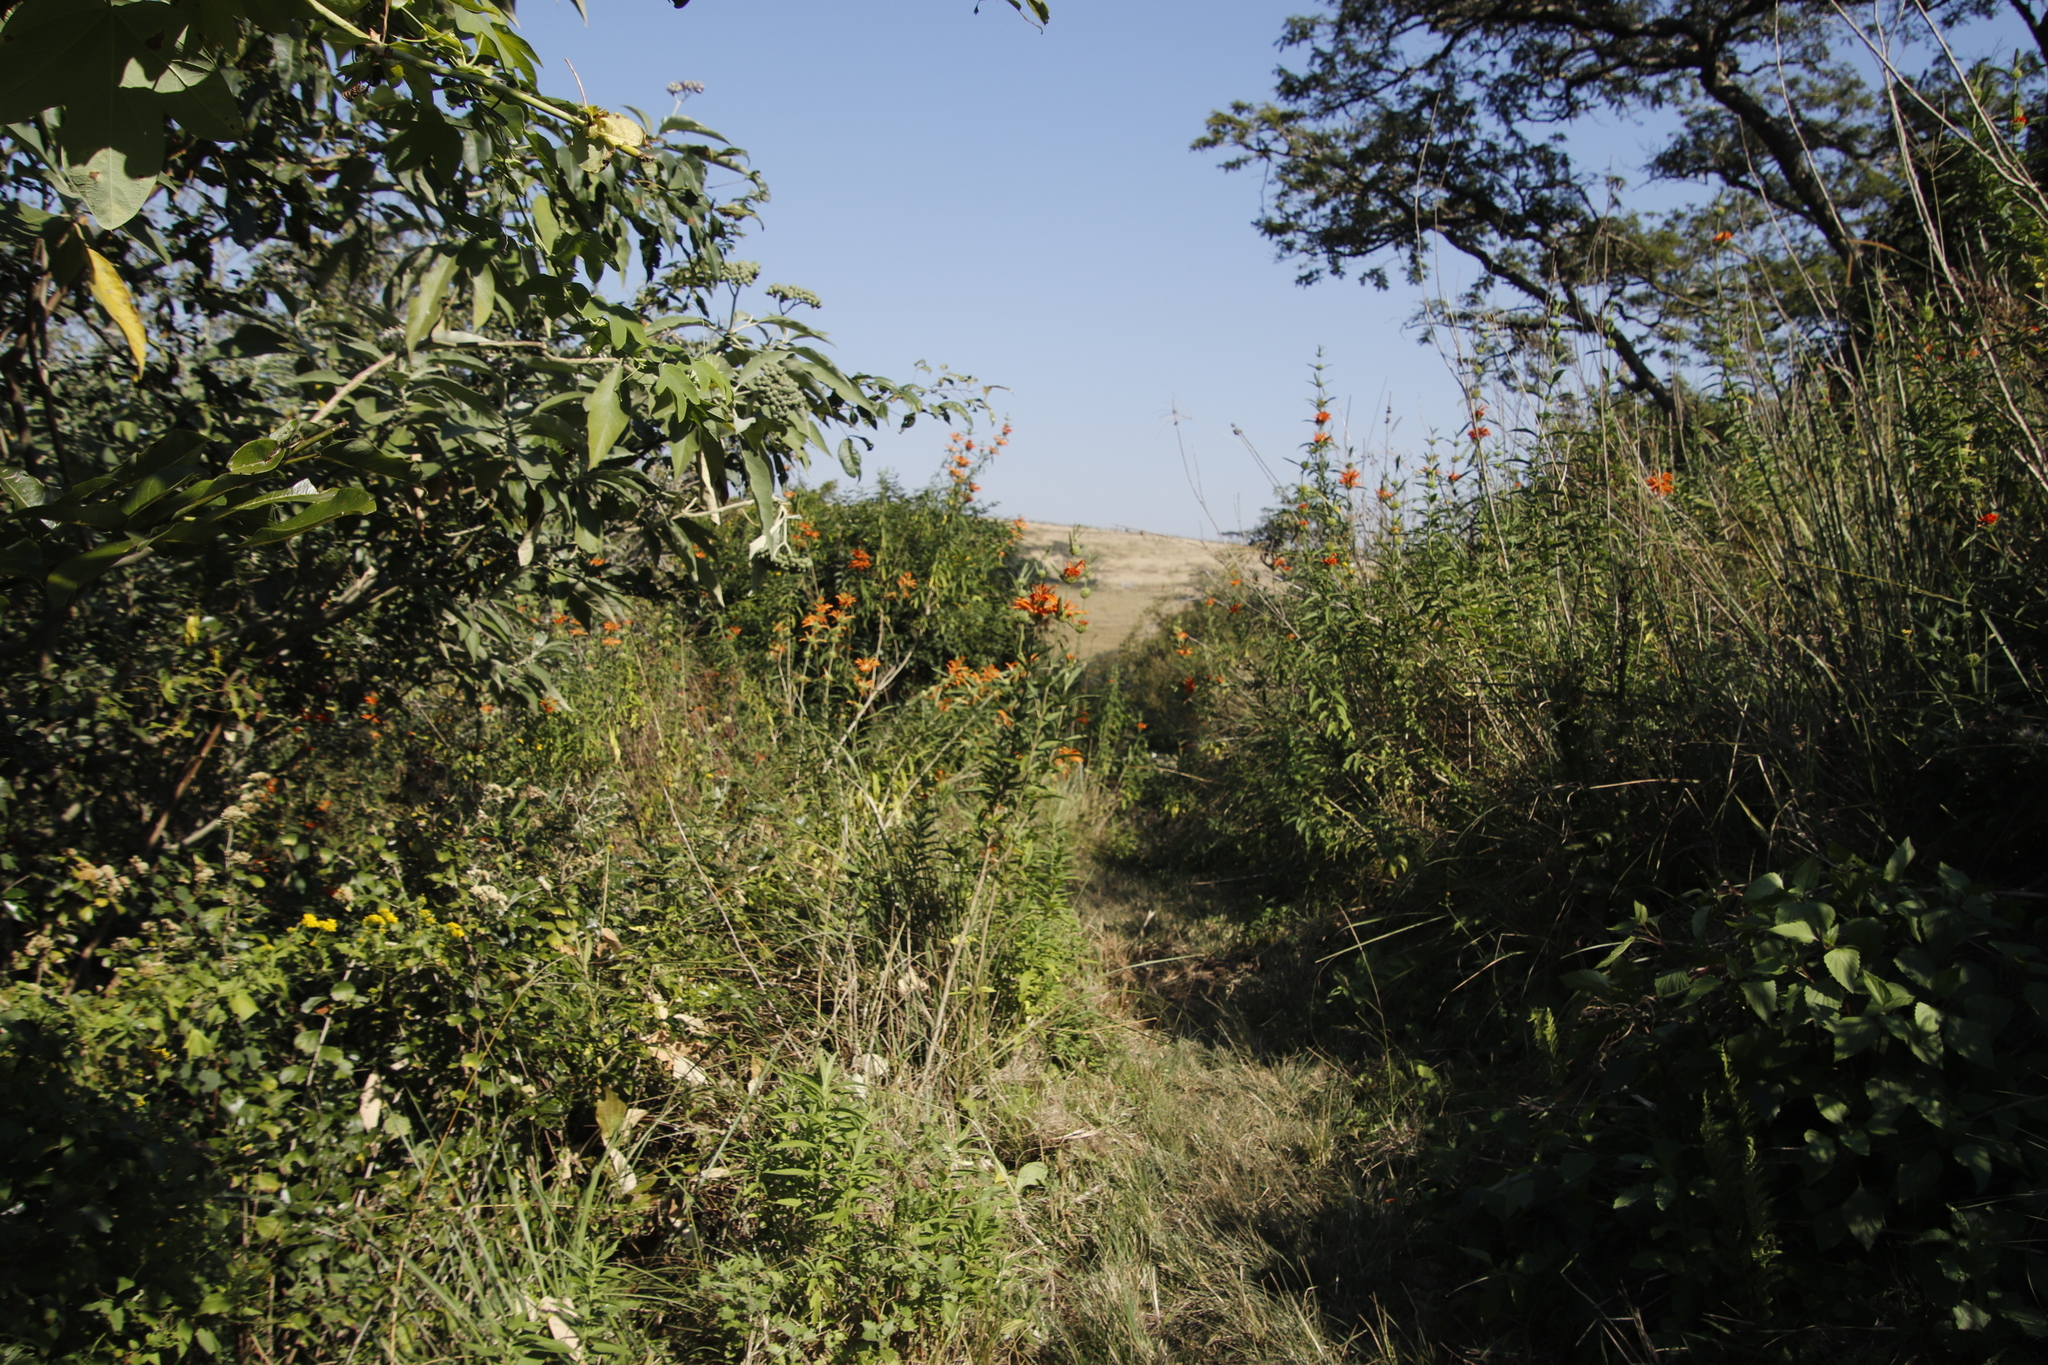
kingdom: Plantae
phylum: Tracheophyta
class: Magnoliopsida
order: Lamiales
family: Lamiaceae
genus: Leonotis
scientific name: Leonotis leonurus
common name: Lion's ear
